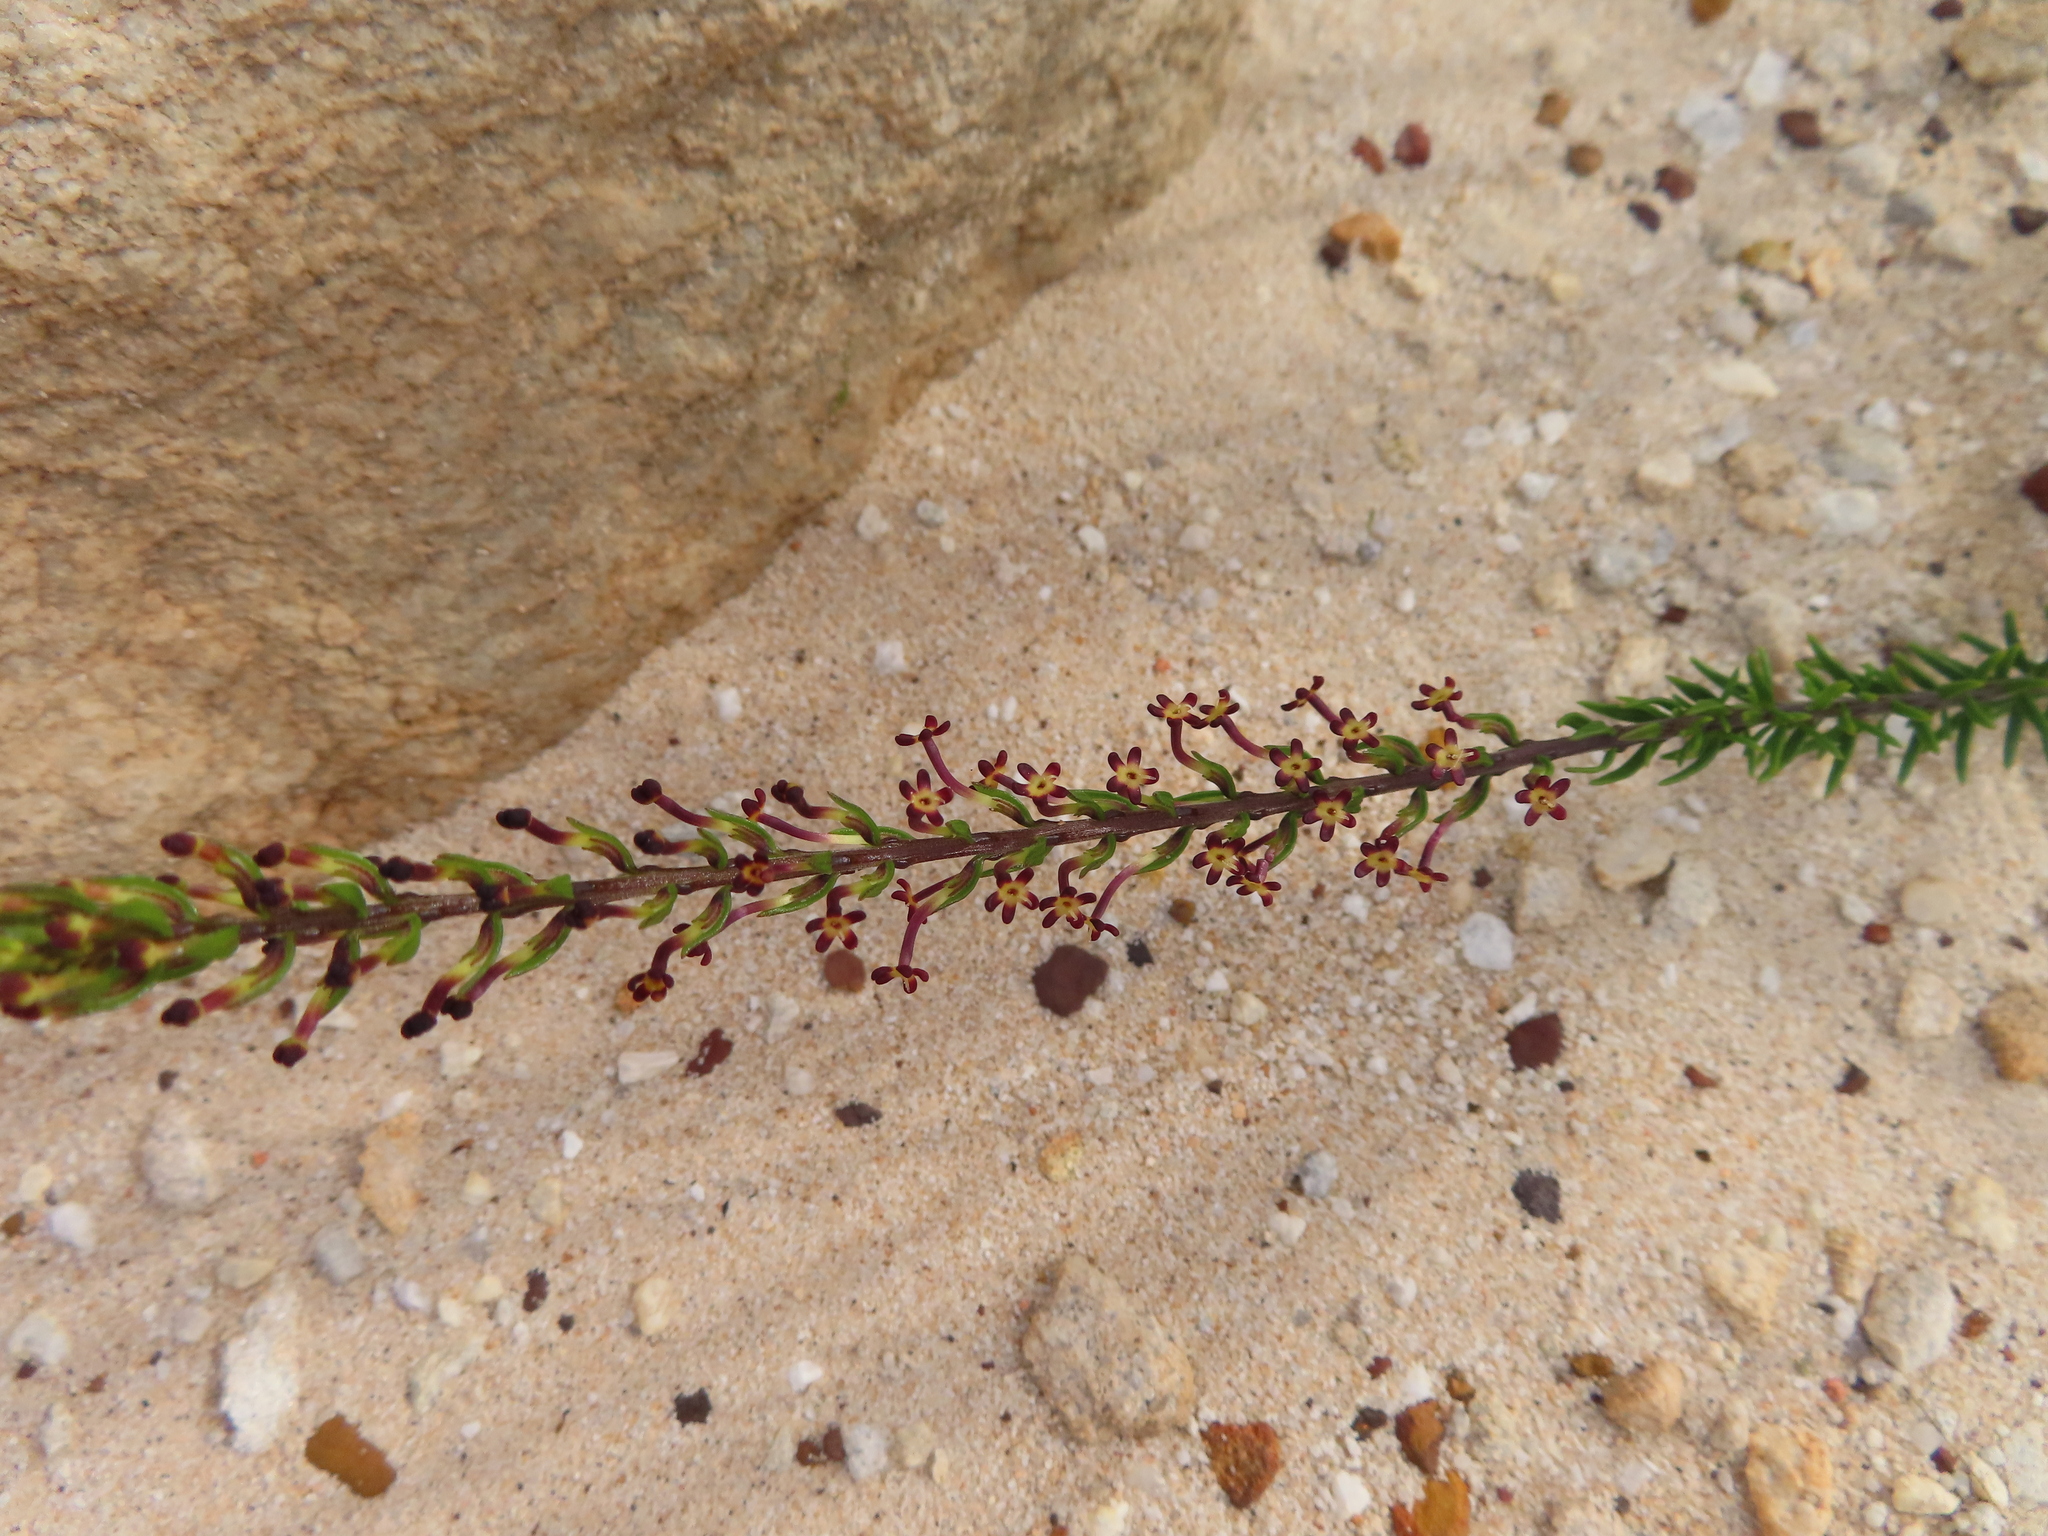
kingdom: Plantae
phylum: Tracheophyta
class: Magnoliopsida
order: Lamiales
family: Scrophulariaceae
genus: Microdon
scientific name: Microdon dubius
